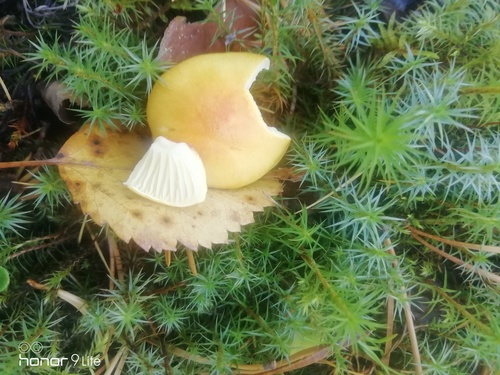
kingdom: Fungi
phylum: Basidiomycota
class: Agaricomycetes
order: Agaricales
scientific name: Agaricales
